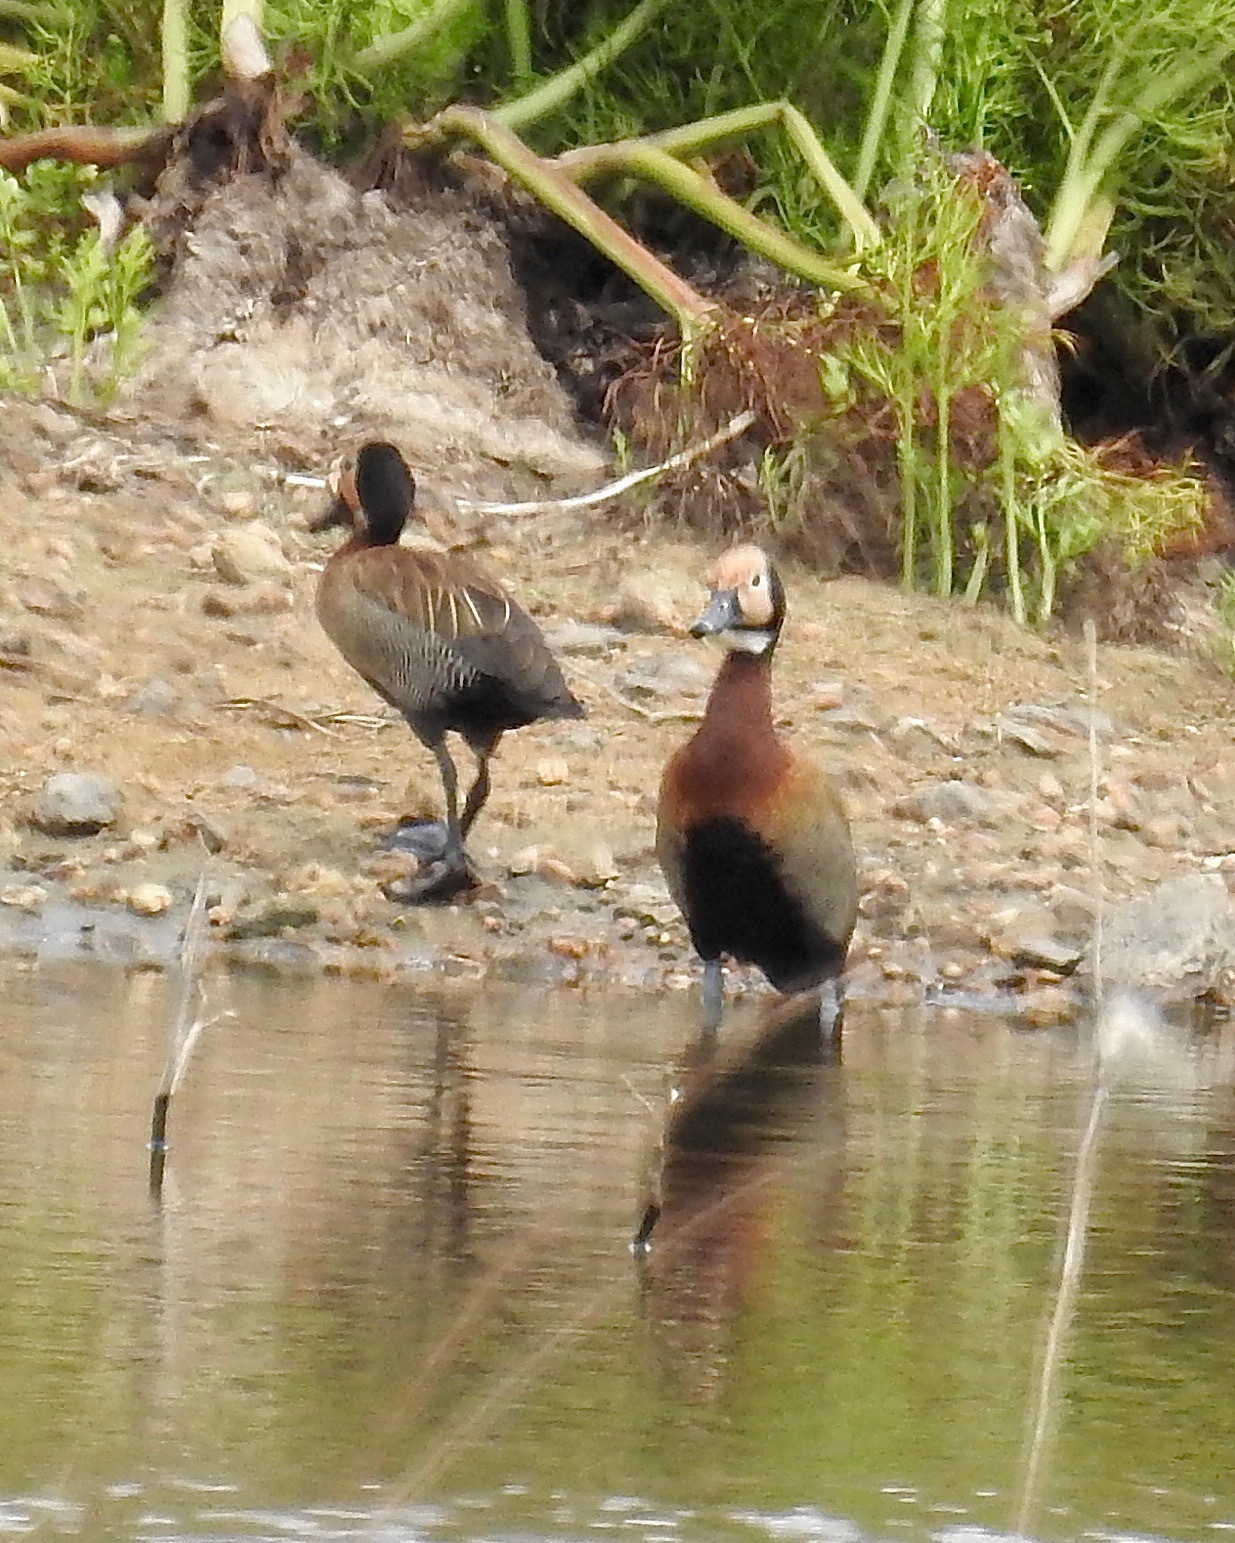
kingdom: Animalia
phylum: Chordata
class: Aves
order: Anseriformes
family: Anatidae
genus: Dendrocygna
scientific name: Dendrocygna viduata
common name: White-faced whistling duck
